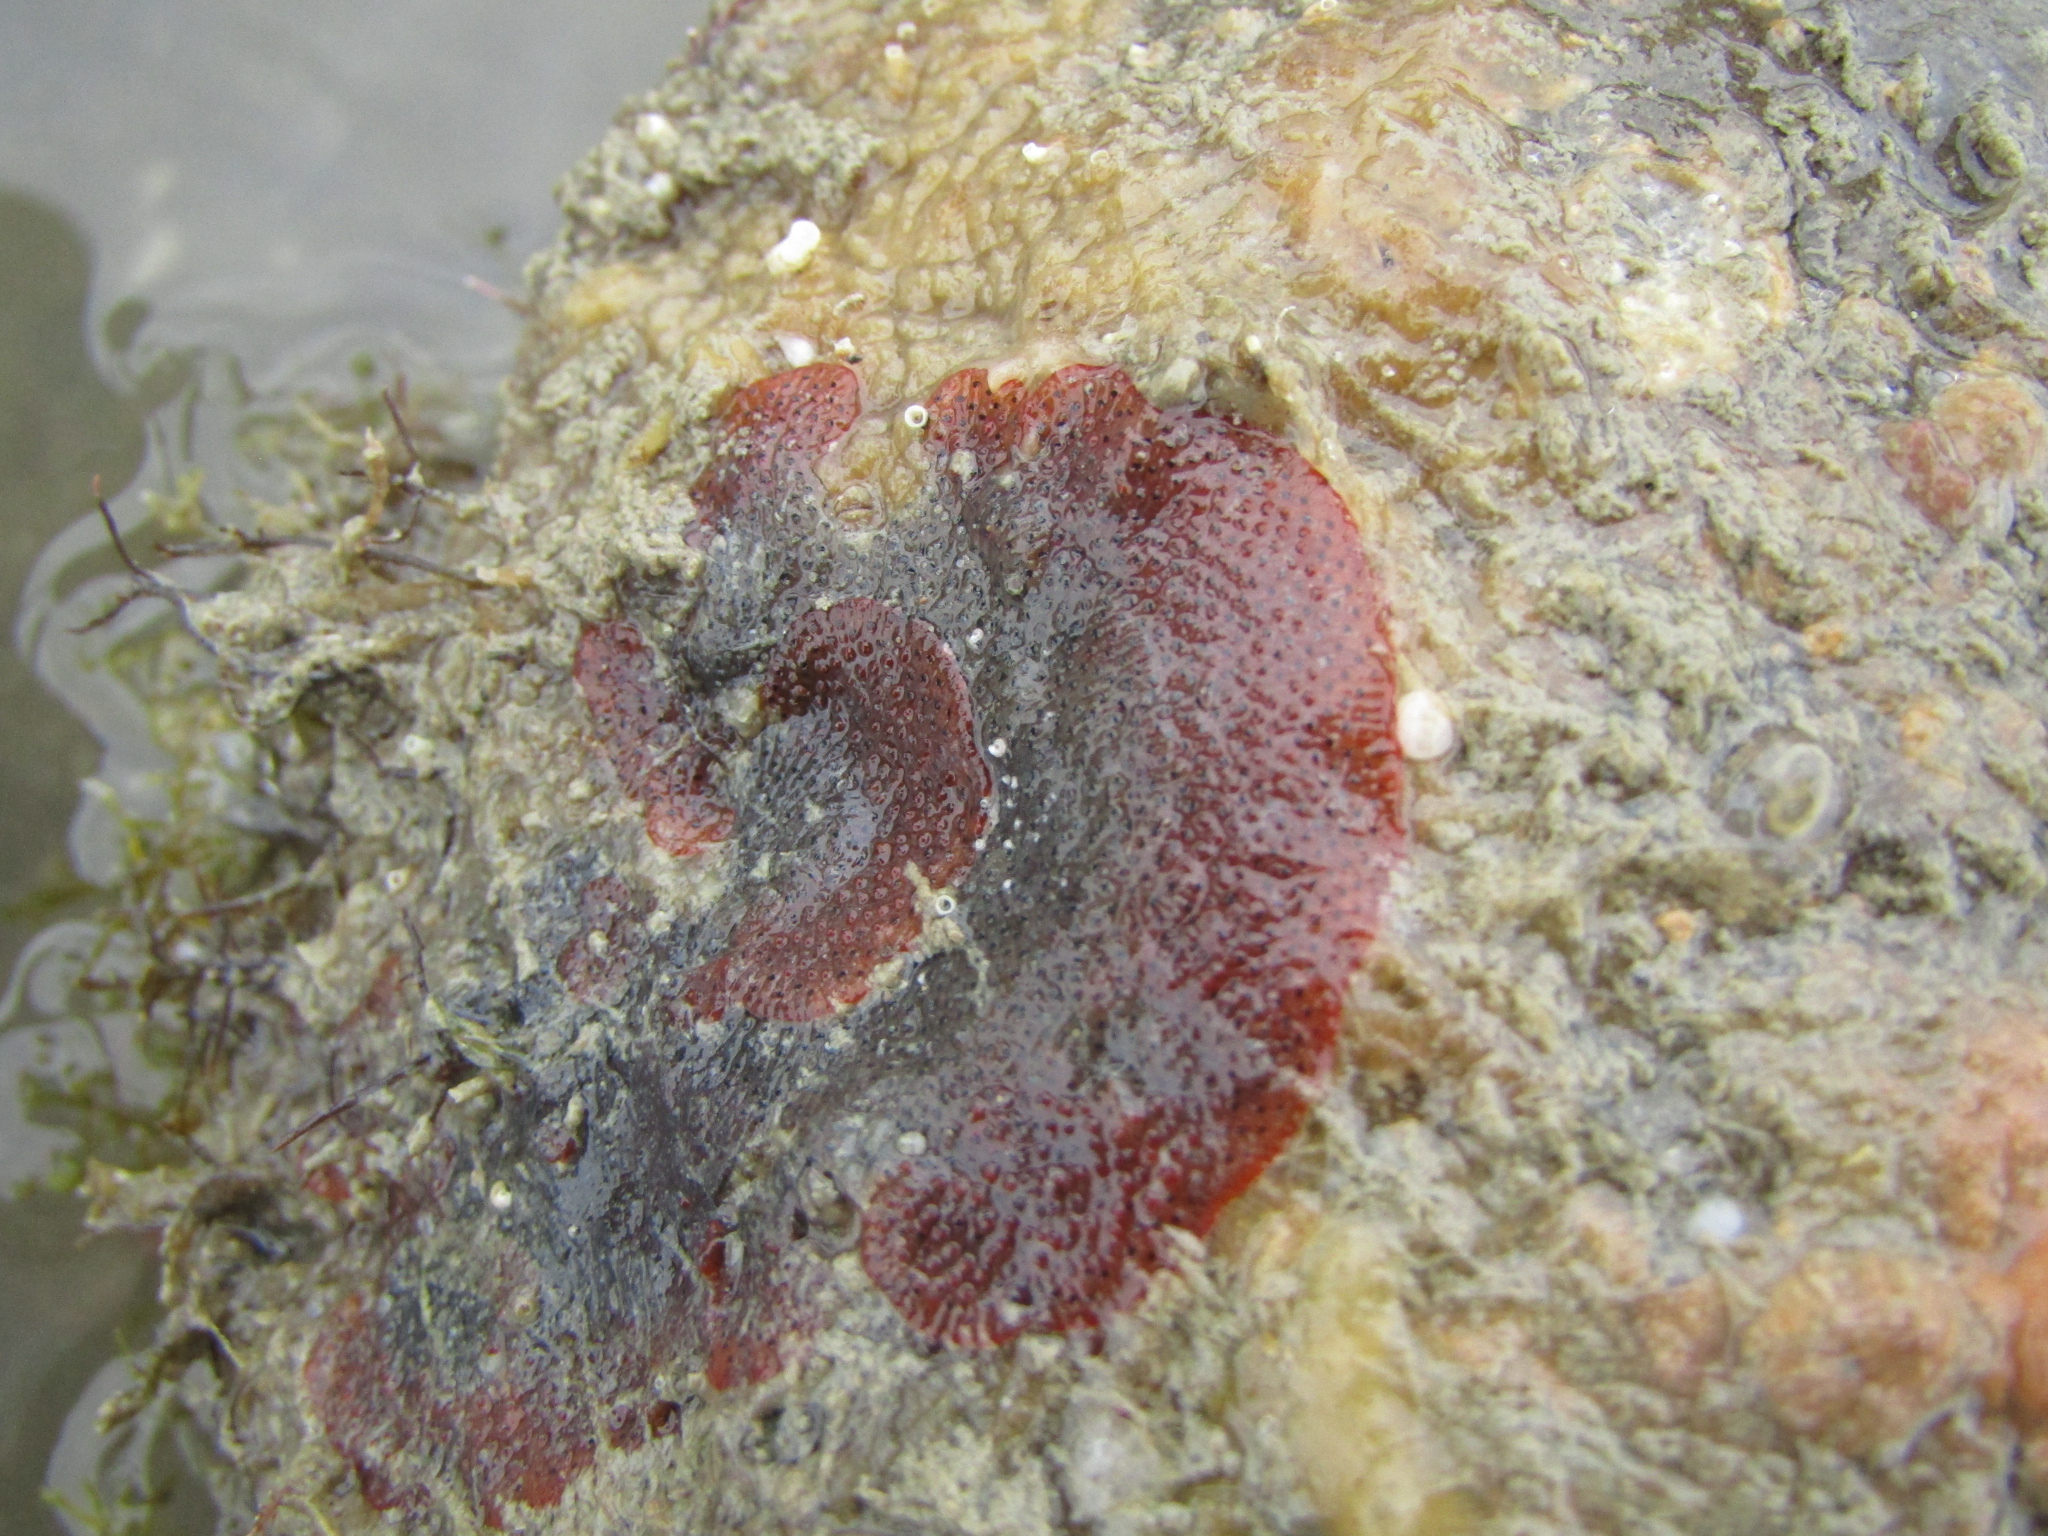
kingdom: Animalia
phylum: Bryozoa
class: Gymnolaemata
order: Cheilostomatida
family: Watersiporidae
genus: Watersipora
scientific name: Watersipora subatra
